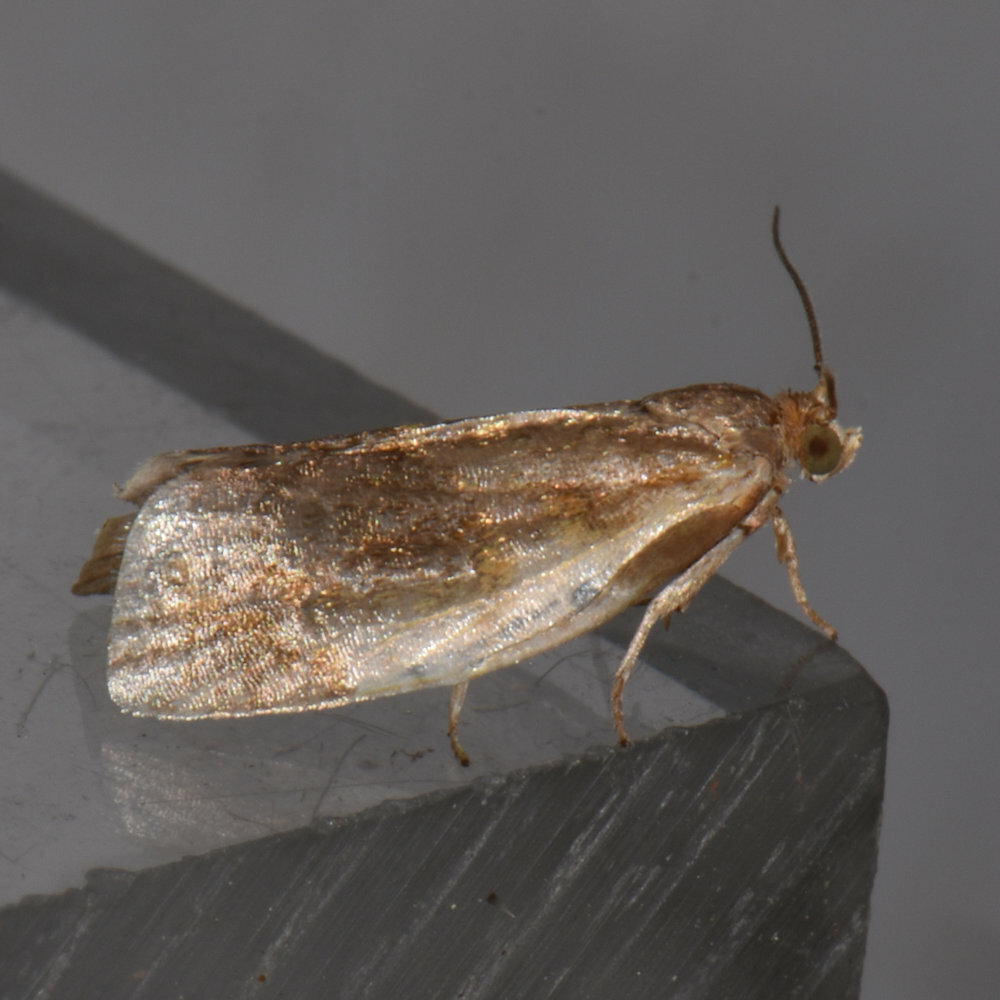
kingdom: Animalia
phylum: Arthropoda
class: Insecta
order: Lepidoptera
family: Tortricidae
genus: Clepsis
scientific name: Clepsis melaleucanus
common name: American apple tortrix
